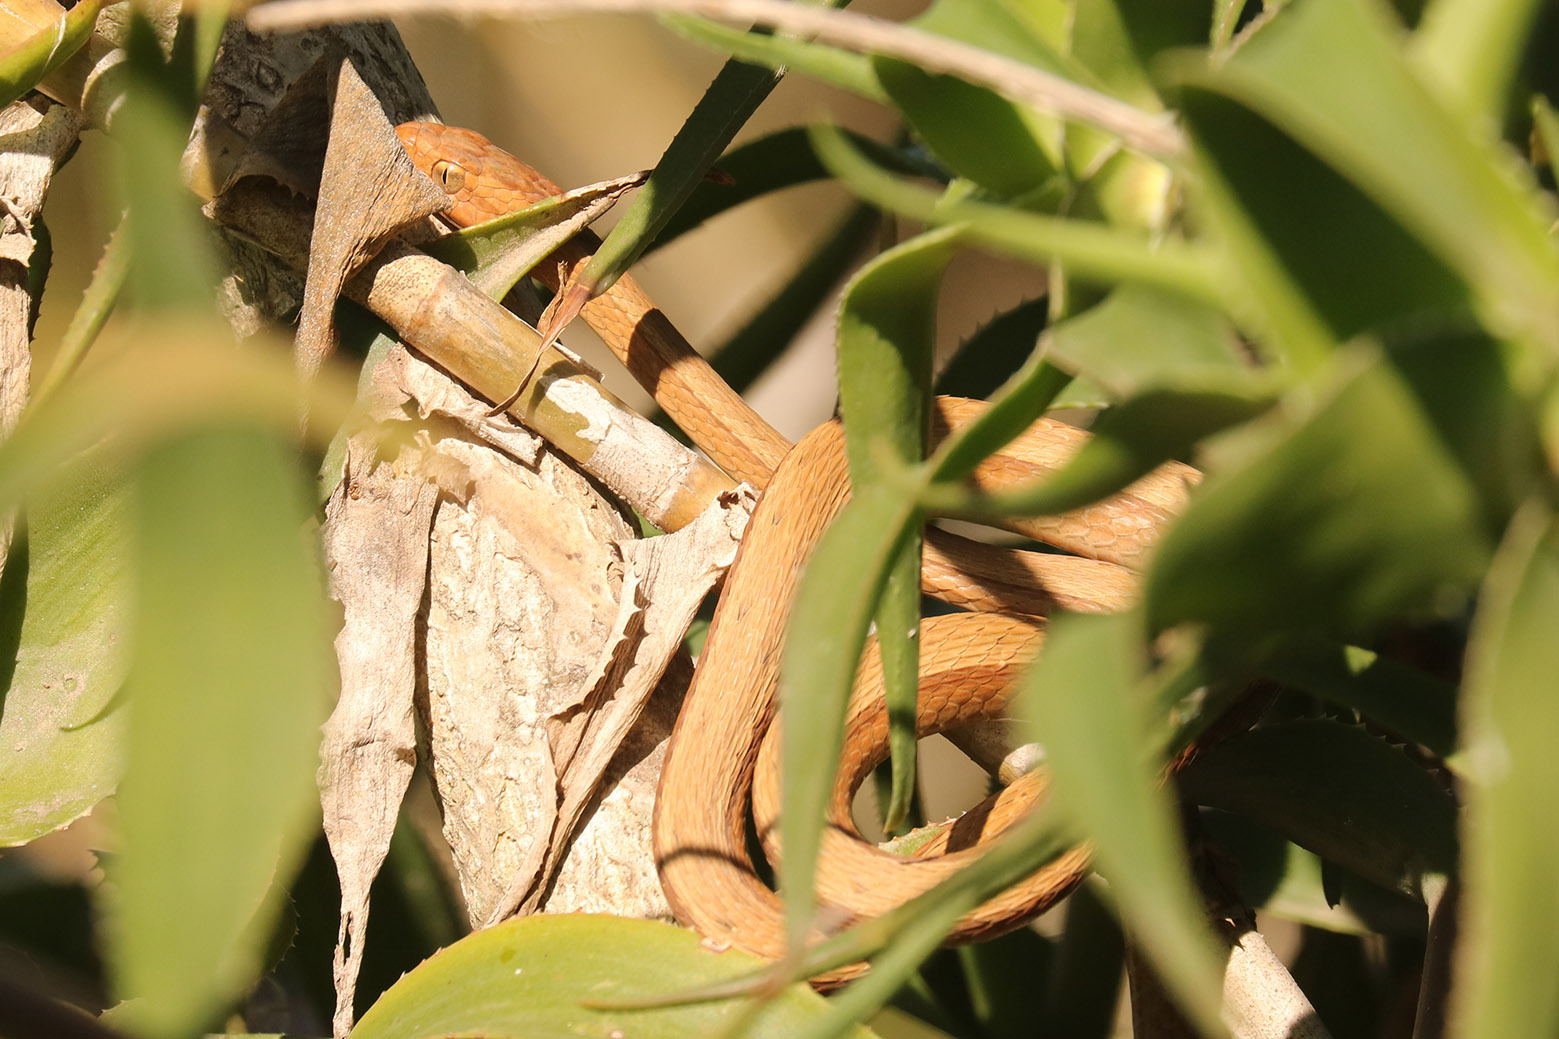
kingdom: Animalia
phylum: Chordata
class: Squamata
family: Colubridae
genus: Dryophylax
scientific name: Dryophylax
